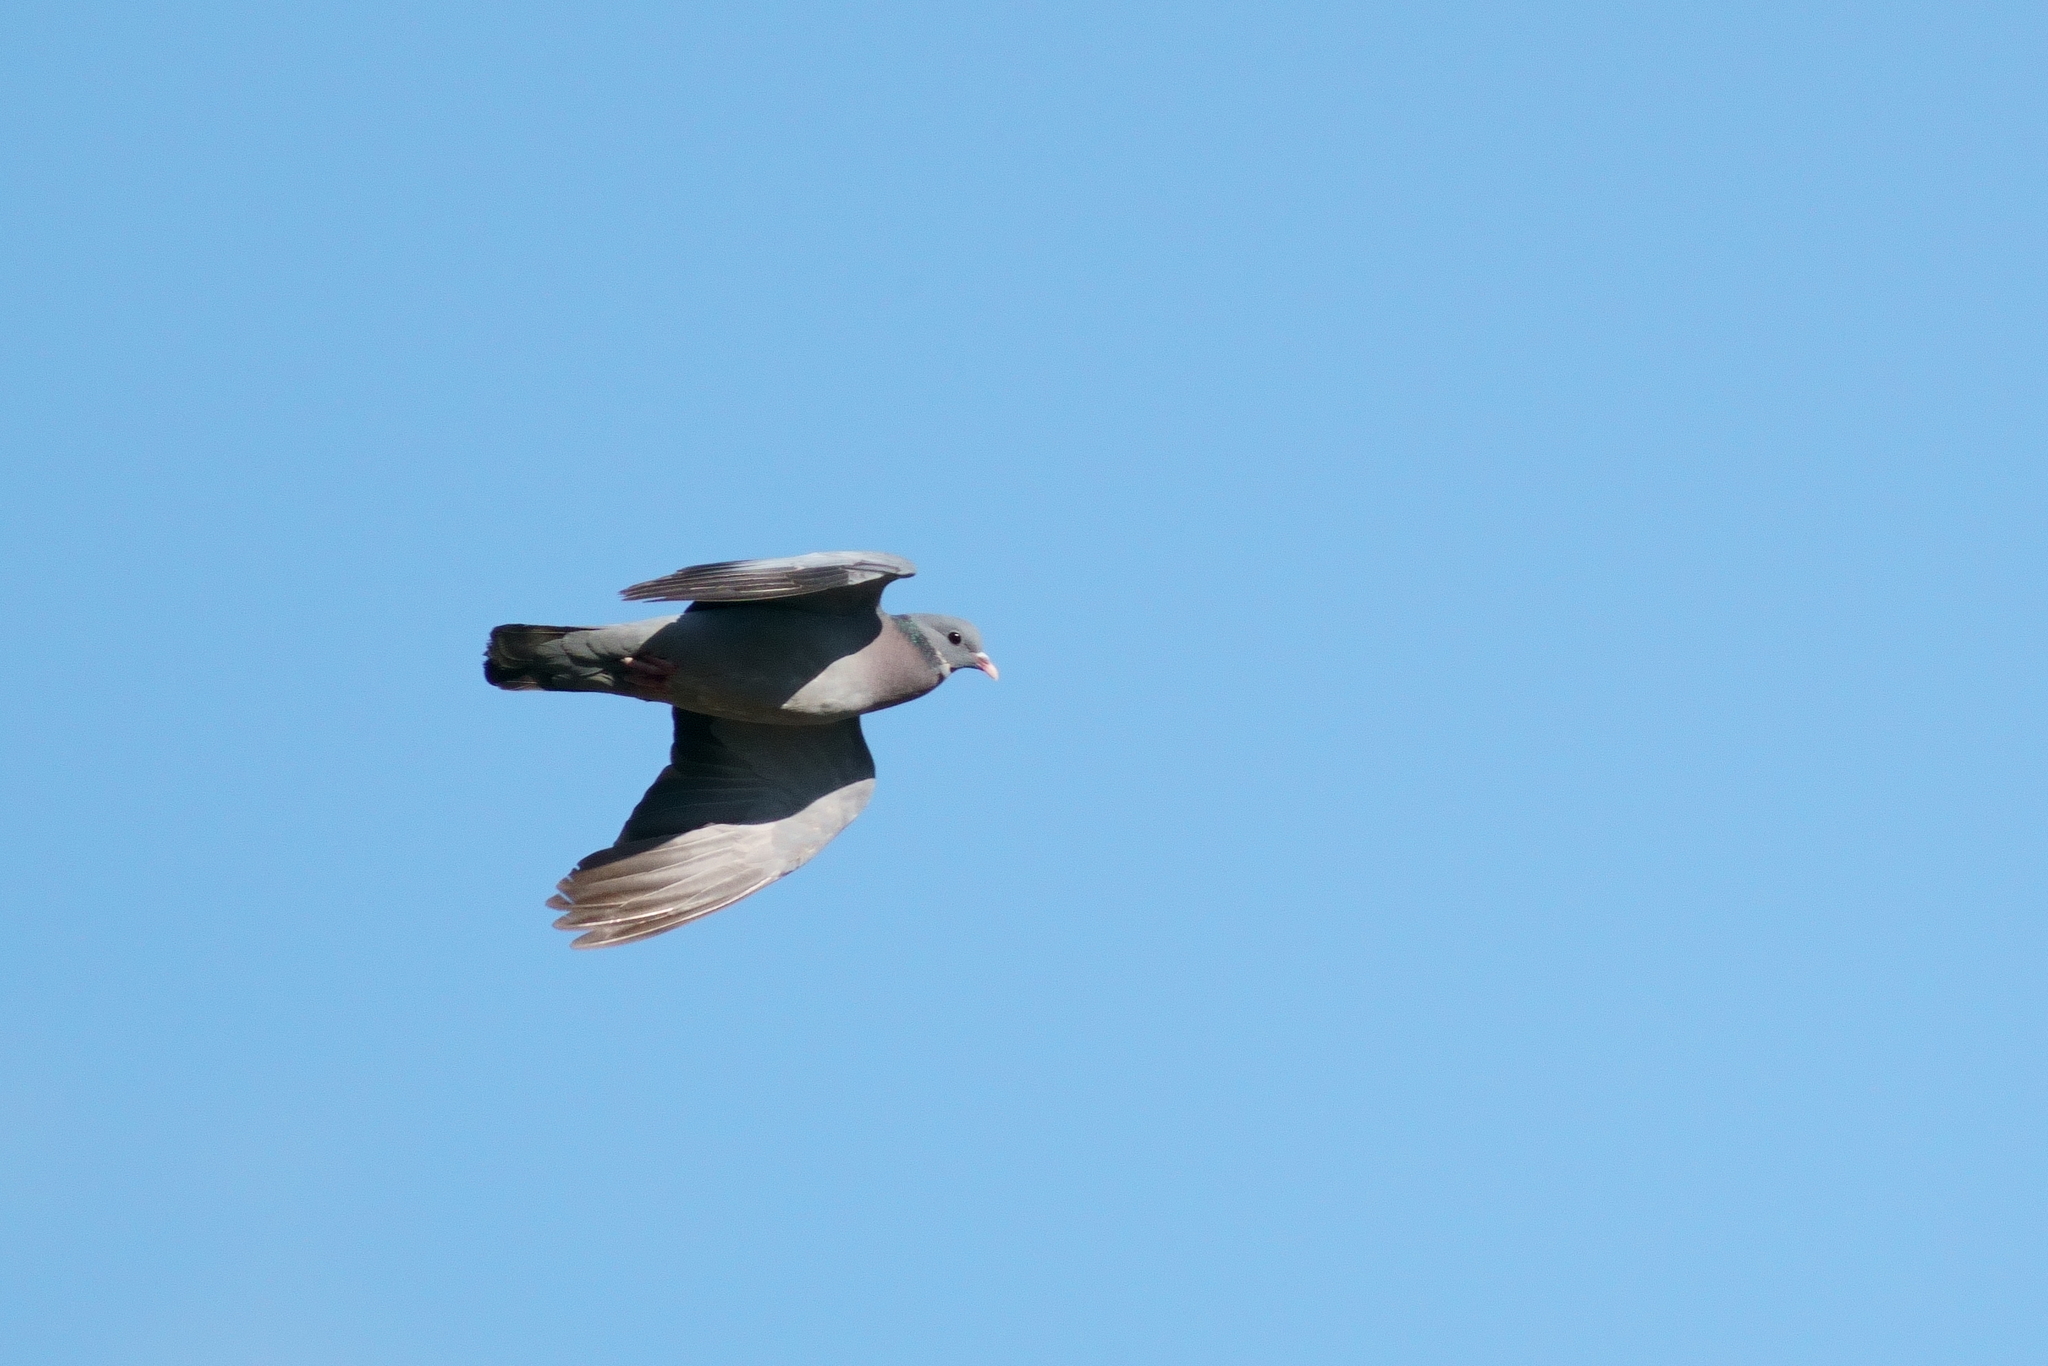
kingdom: Animalia
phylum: Chordata
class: Aves
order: Columbiformes
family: Columbidae
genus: Columba
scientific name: Columba oenas
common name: Stock dove
